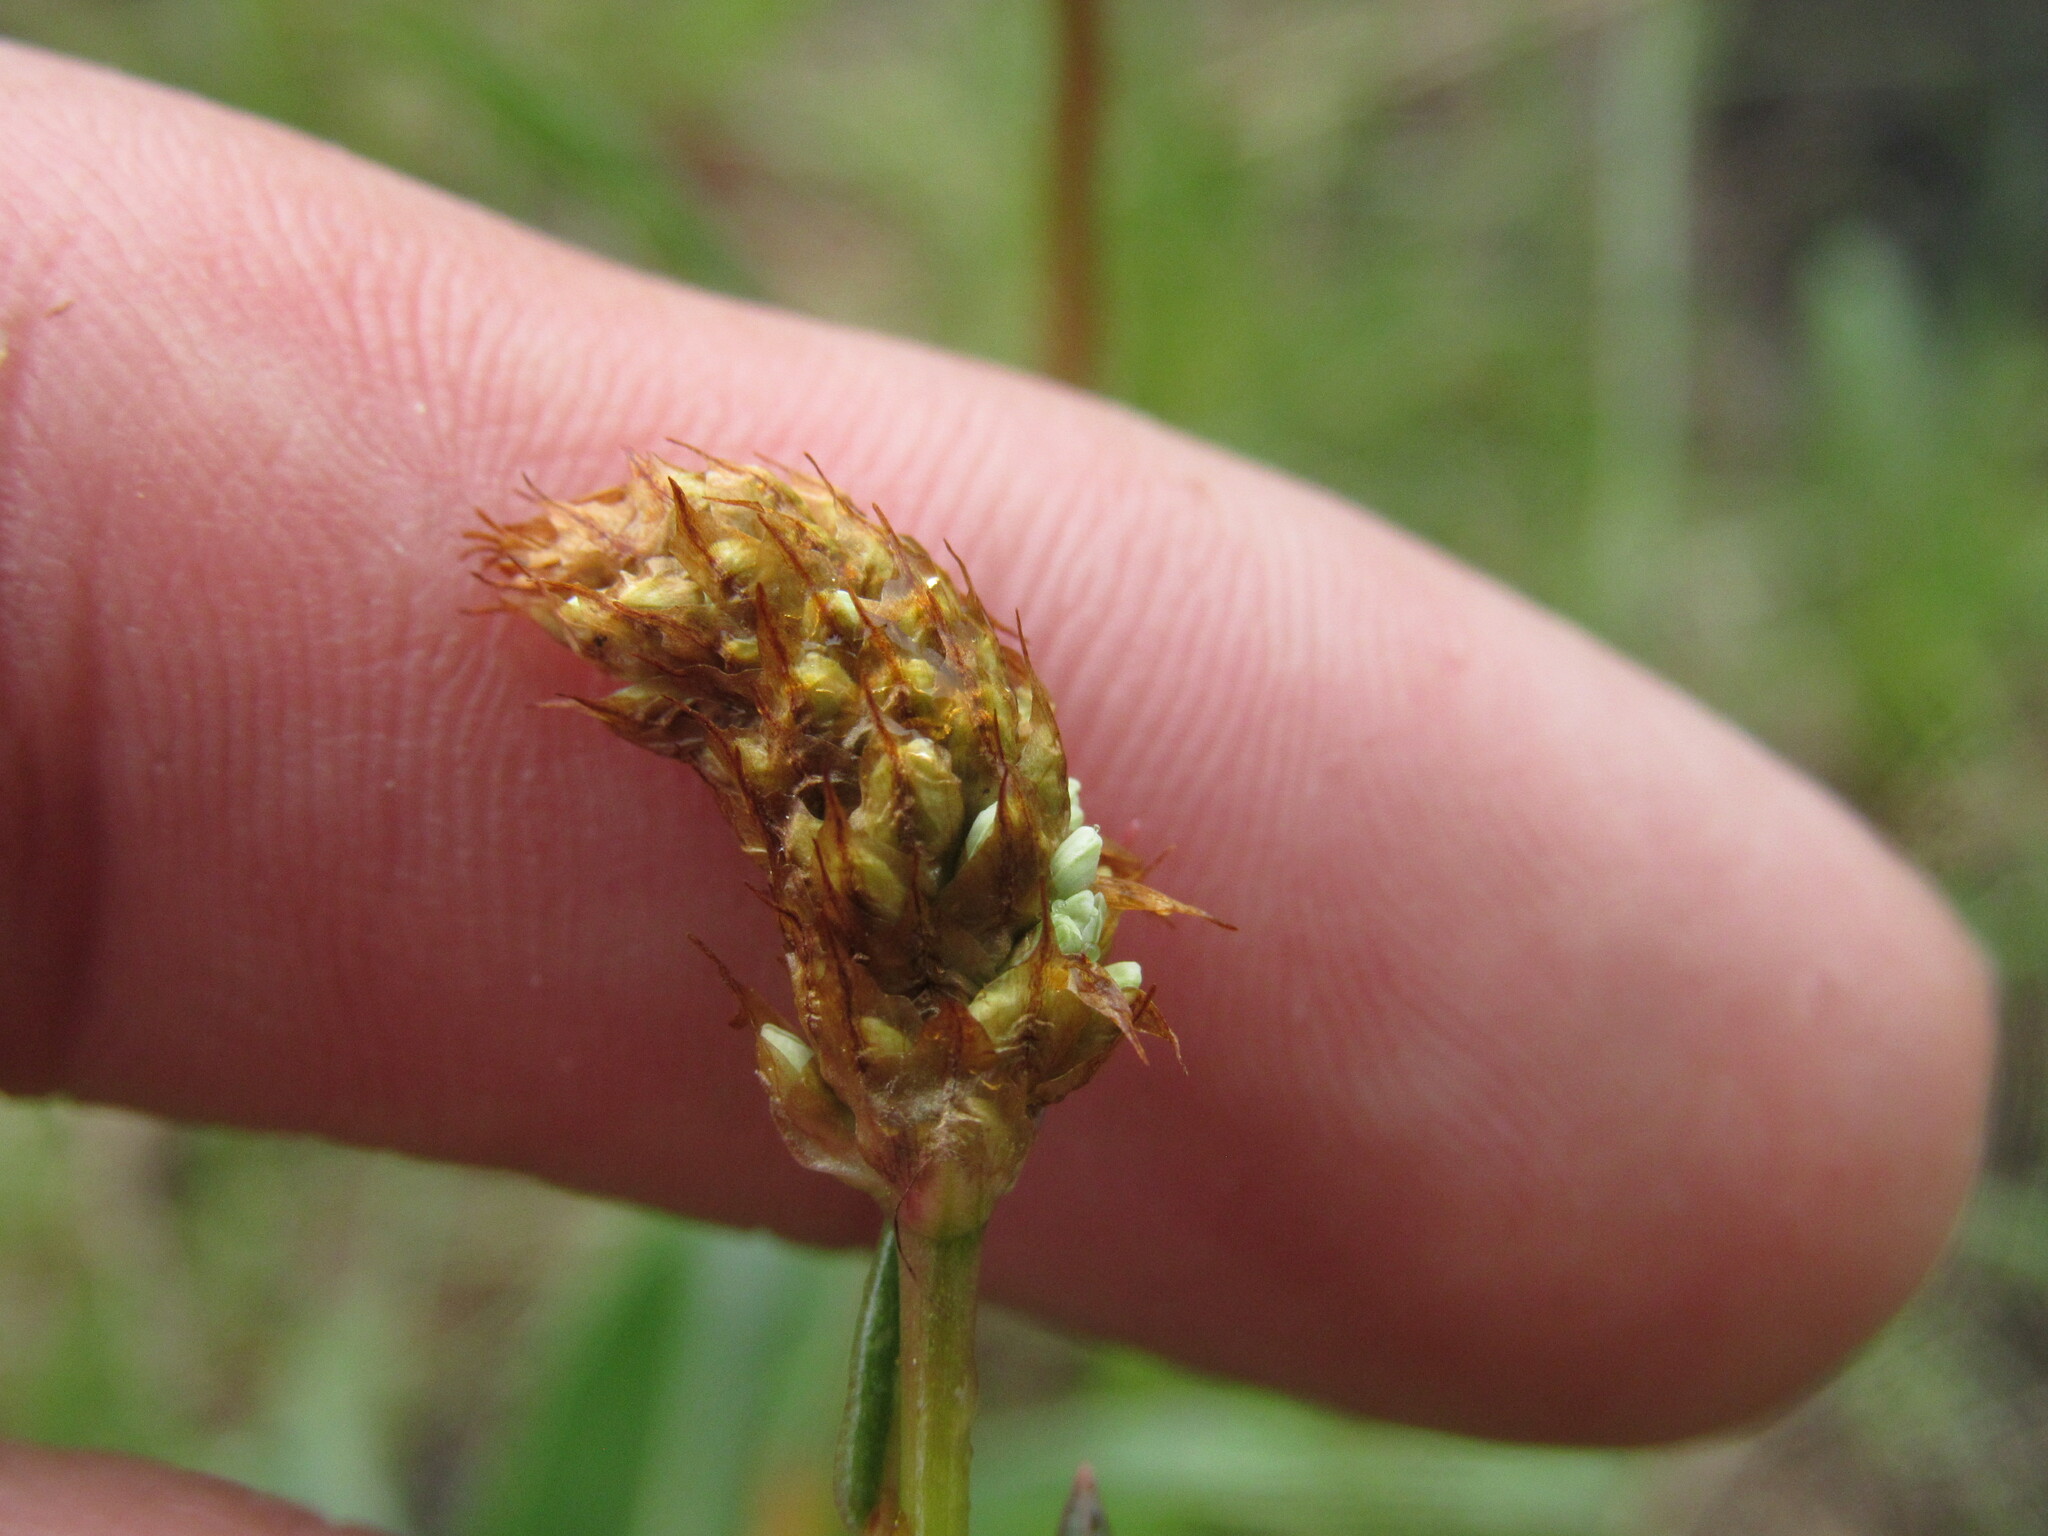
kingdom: Plantae
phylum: Tracheophyta
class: Magnoliopsida
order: Caryophyllales
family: Polygonaceae
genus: Bistorta
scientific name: Bistorta bistortoides
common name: American bistort
